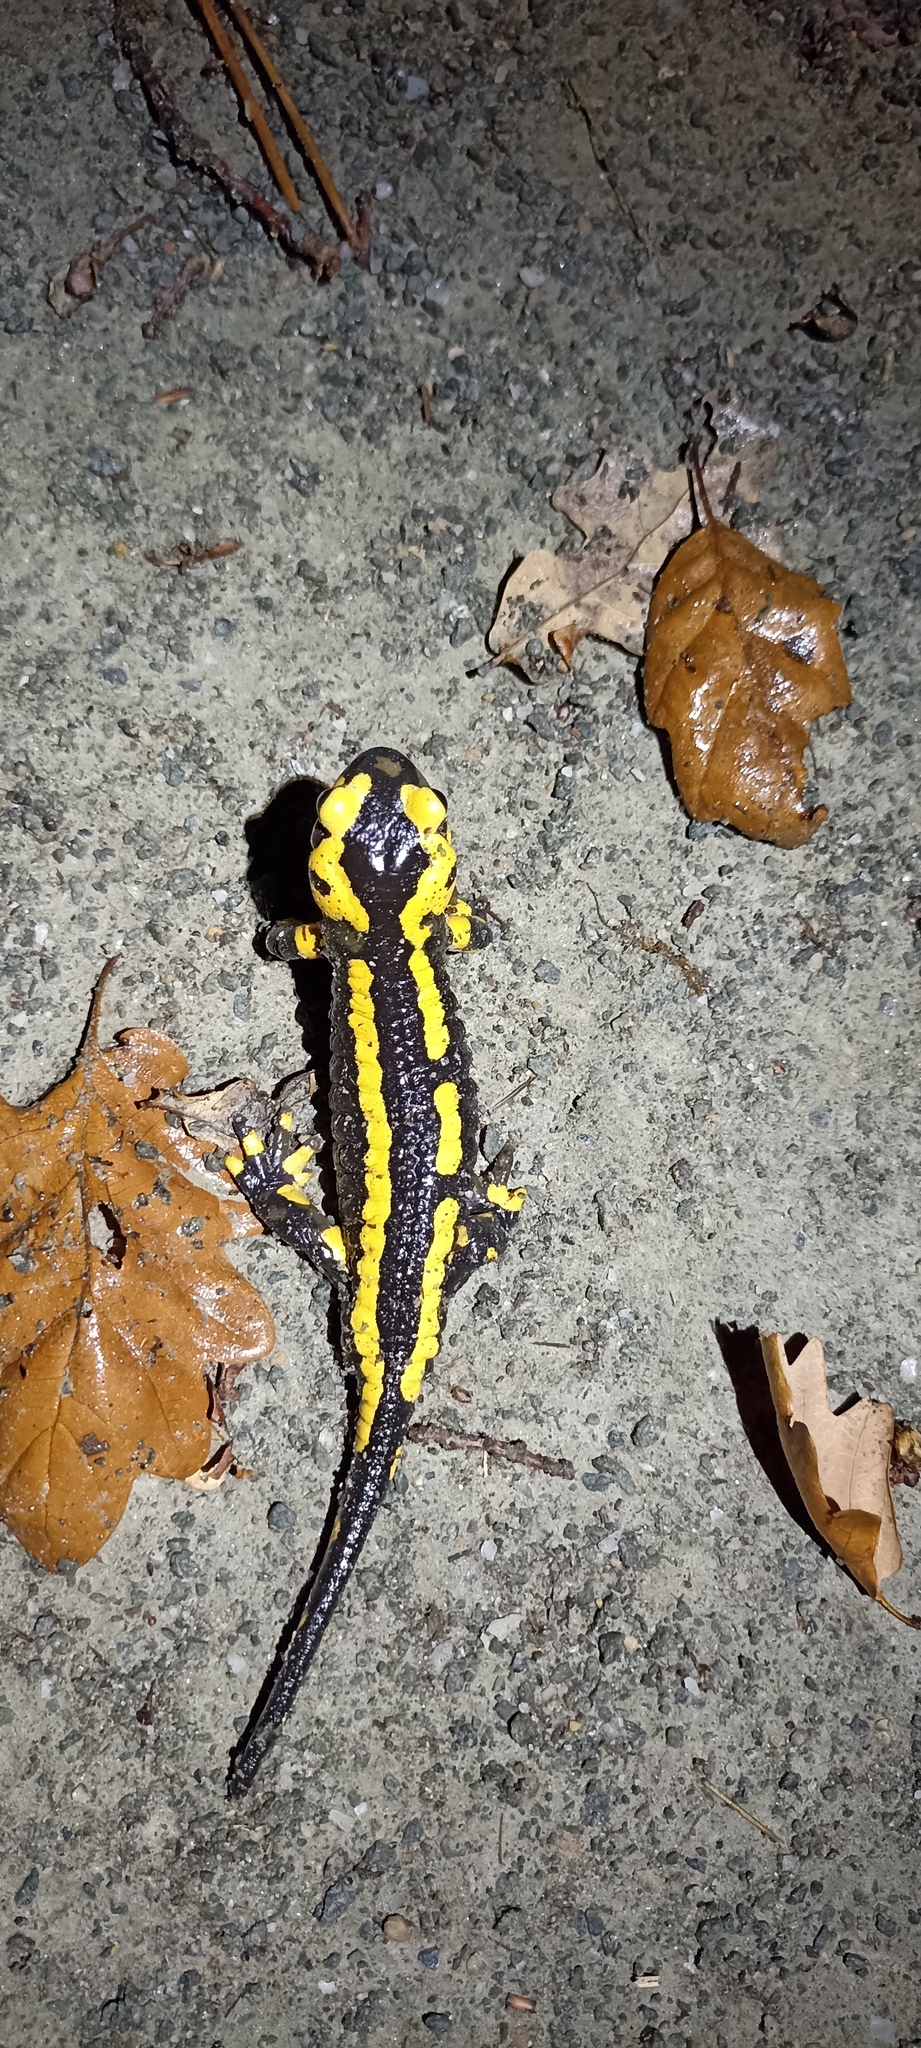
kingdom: Animalia
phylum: Chordata
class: Amphibia
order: Caudata
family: Salamandridae
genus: Salamandra
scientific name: Salamandra salamandra
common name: Fire salamander
